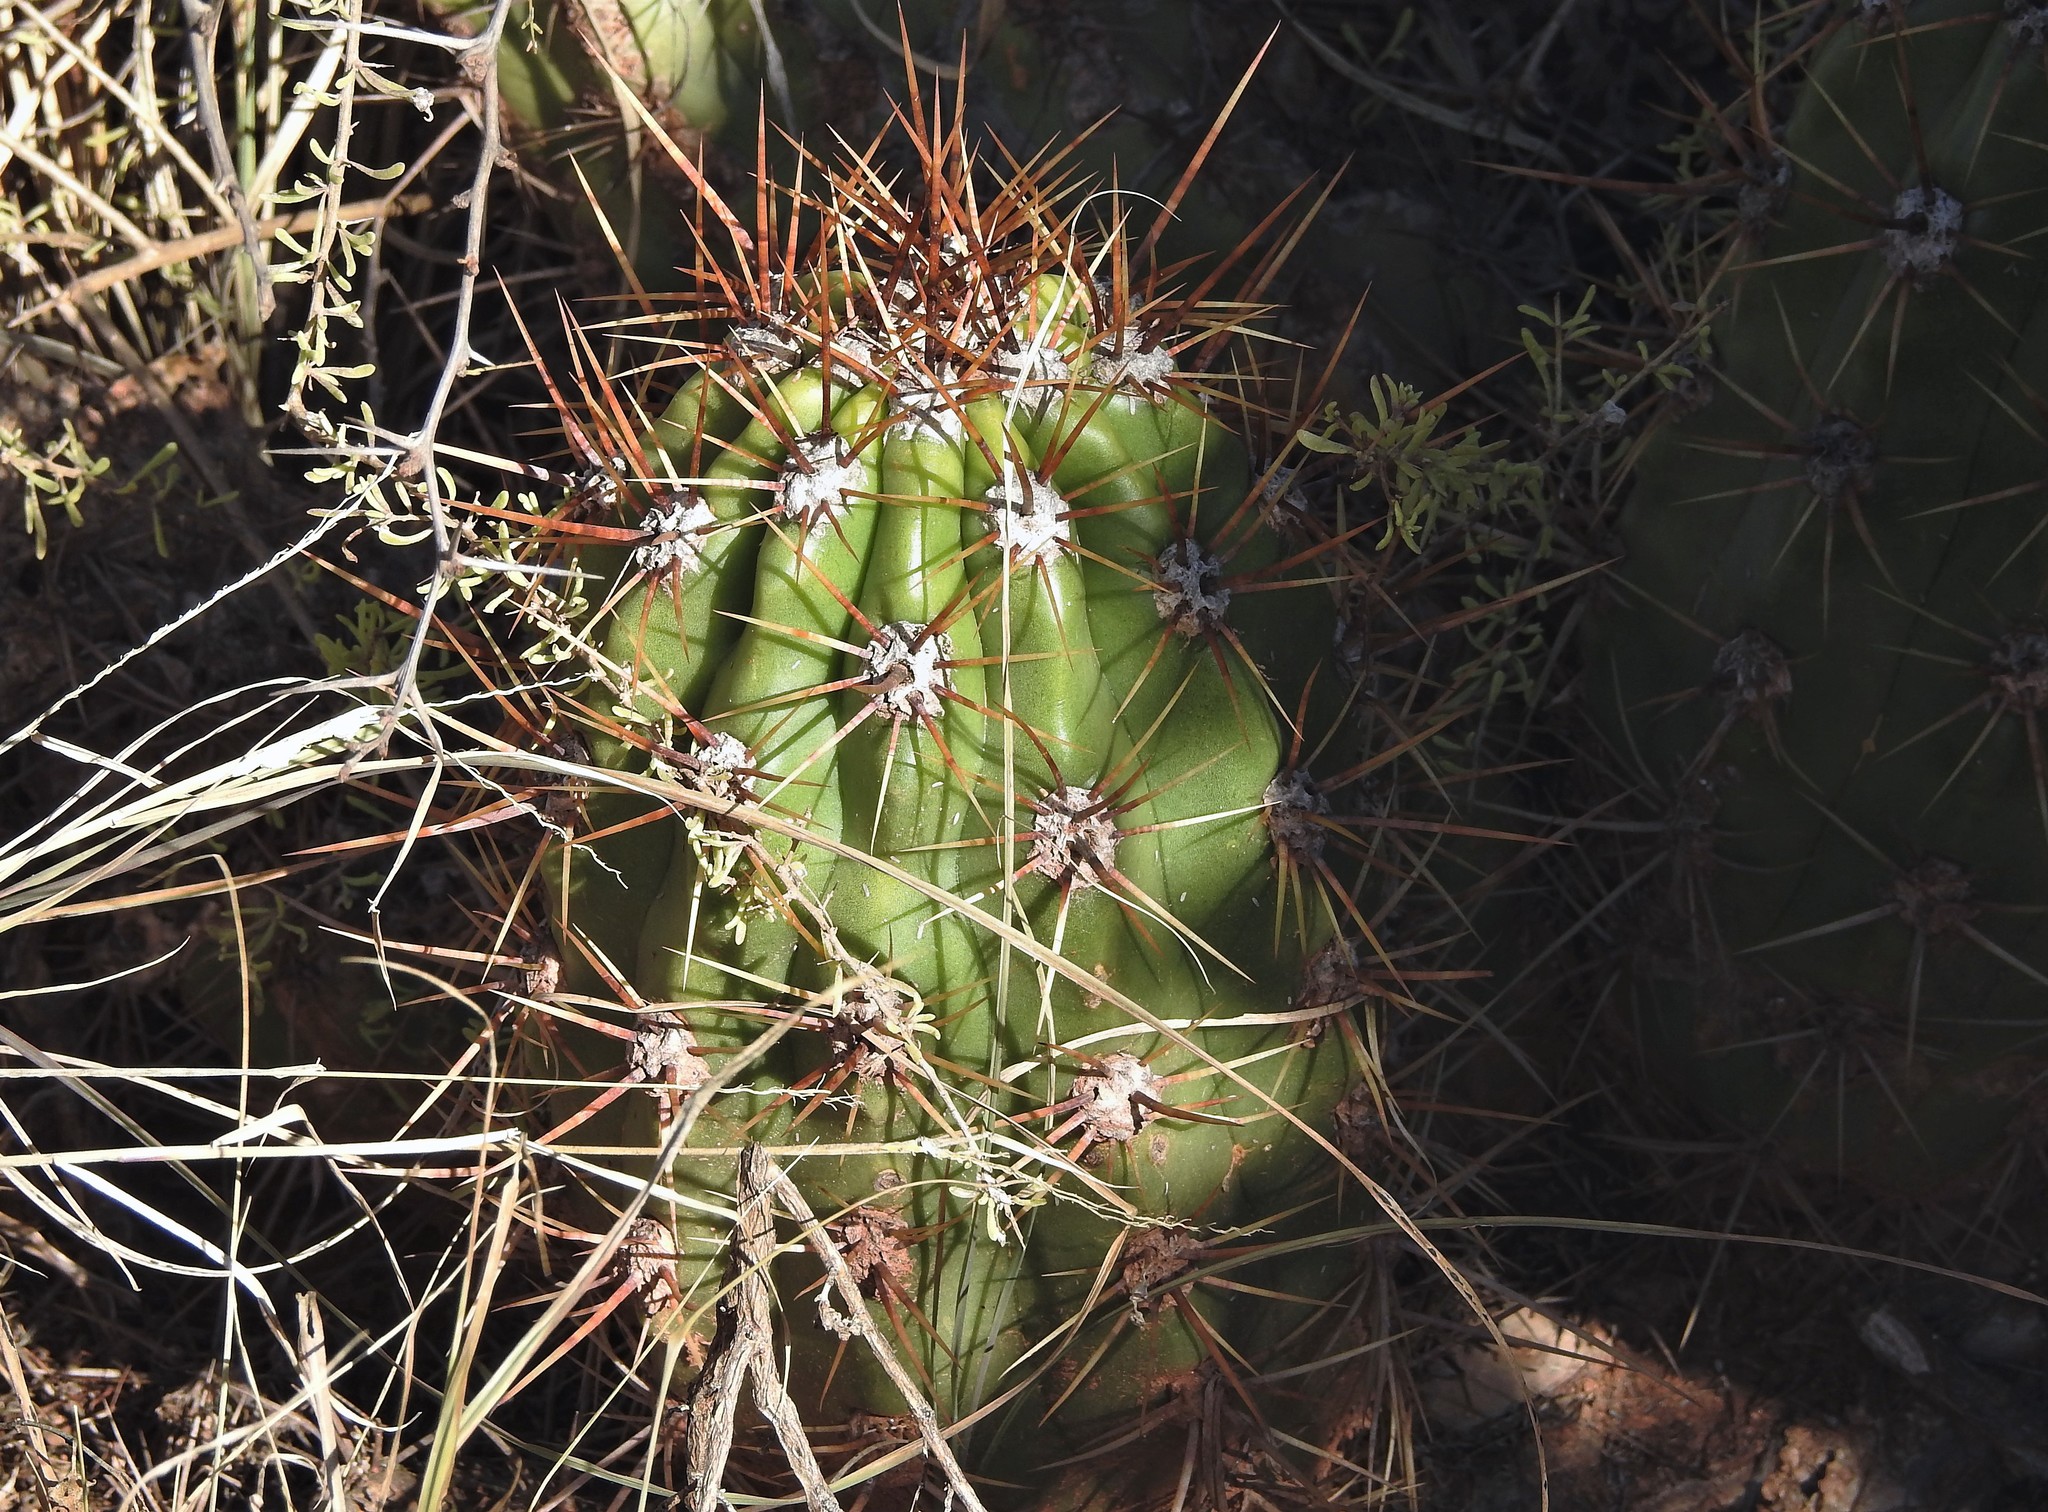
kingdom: Plantae
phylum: Tracheophyta
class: Magnoliopsida
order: Caryophyllales
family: Cactaceae
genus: Soehrensia
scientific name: Soehrensia candicans
